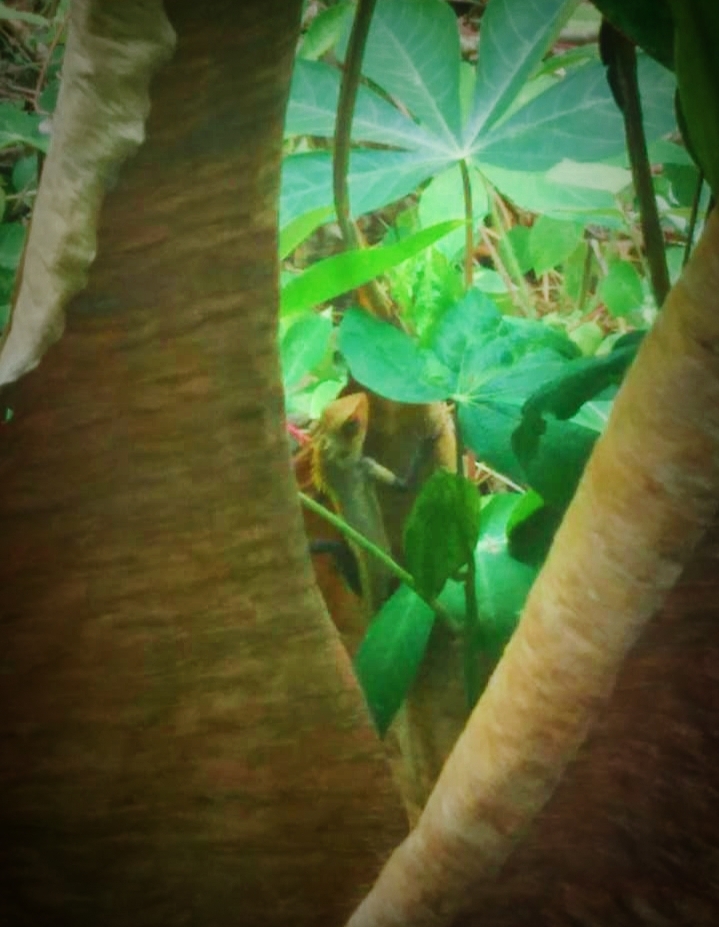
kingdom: Animalia
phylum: Chordata
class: Squamata
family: Agamidae
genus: Calotes
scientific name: Calotes versicolor
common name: Oriental garden lizard
